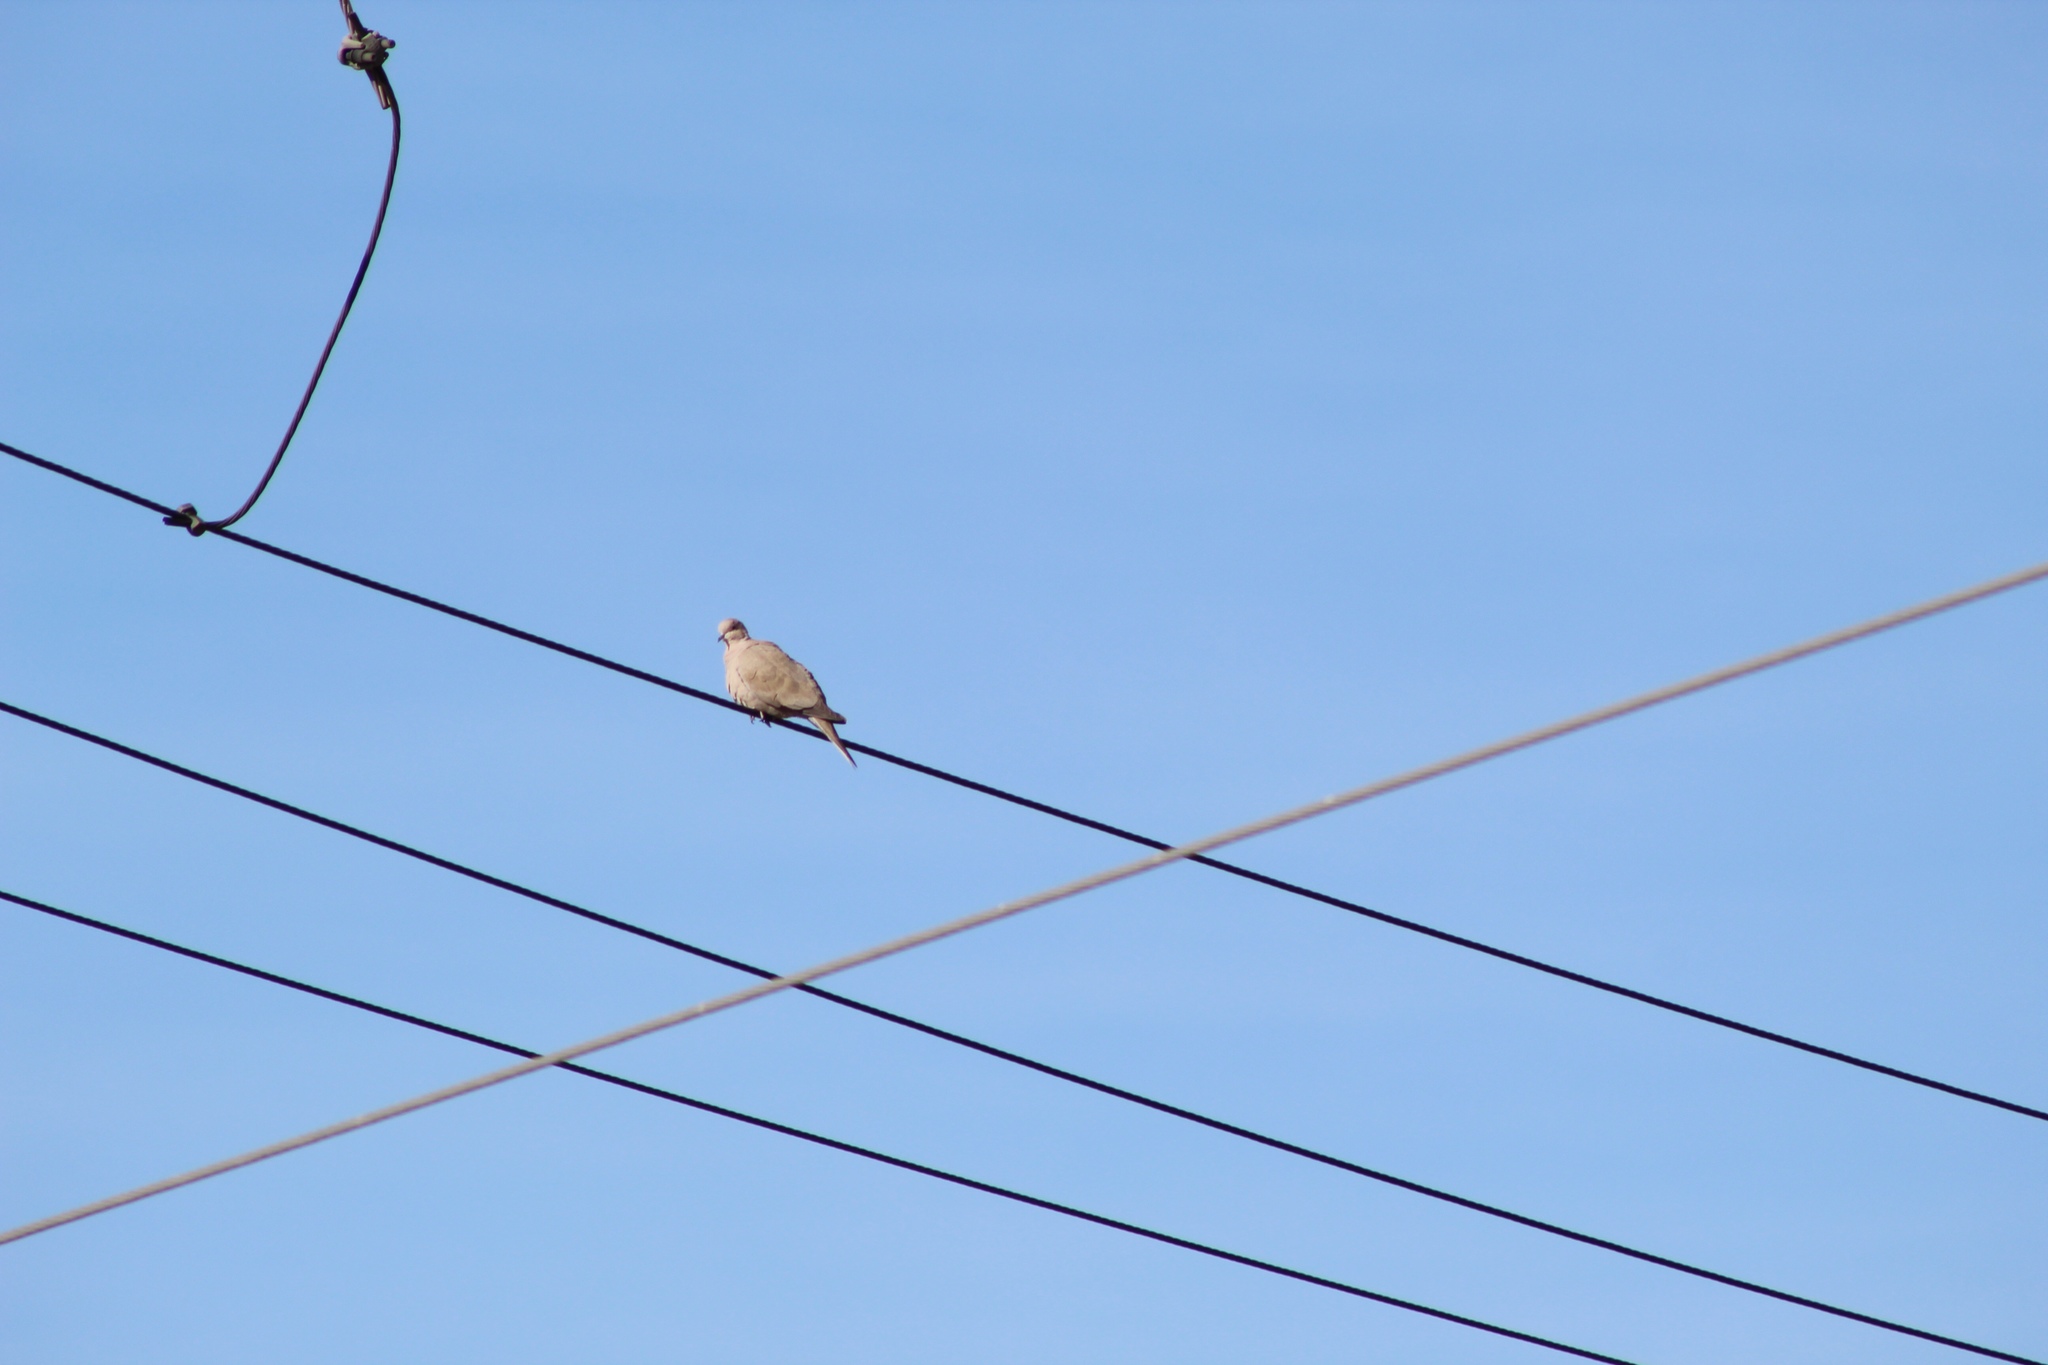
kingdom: Animalia
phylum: Chordata
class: Aves
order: Columbiformes
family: Columbidae
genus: Streptopelia
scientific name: Streptopelia decaocto
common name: Eurasian collared dove
